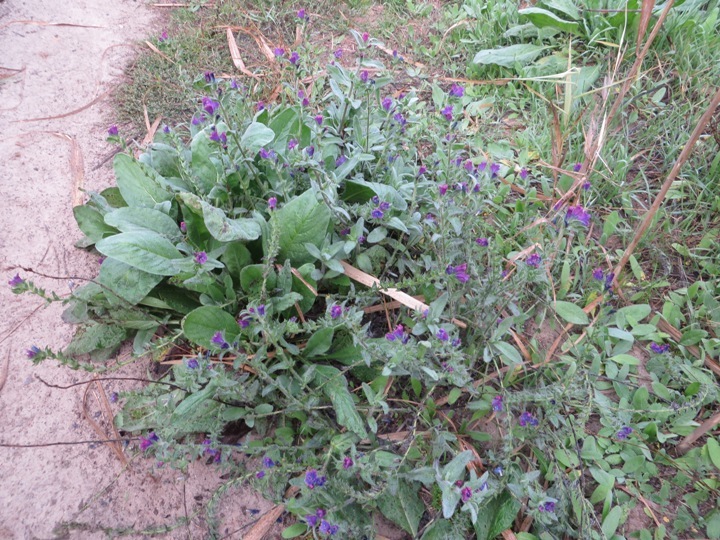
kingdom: Plantae
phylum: Tracheophyta
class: Magnoliopsida
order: Boraginales
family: Boraginaceae
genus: Echium
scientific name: Echium plantagineum
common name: Purple viper's-bugloss
